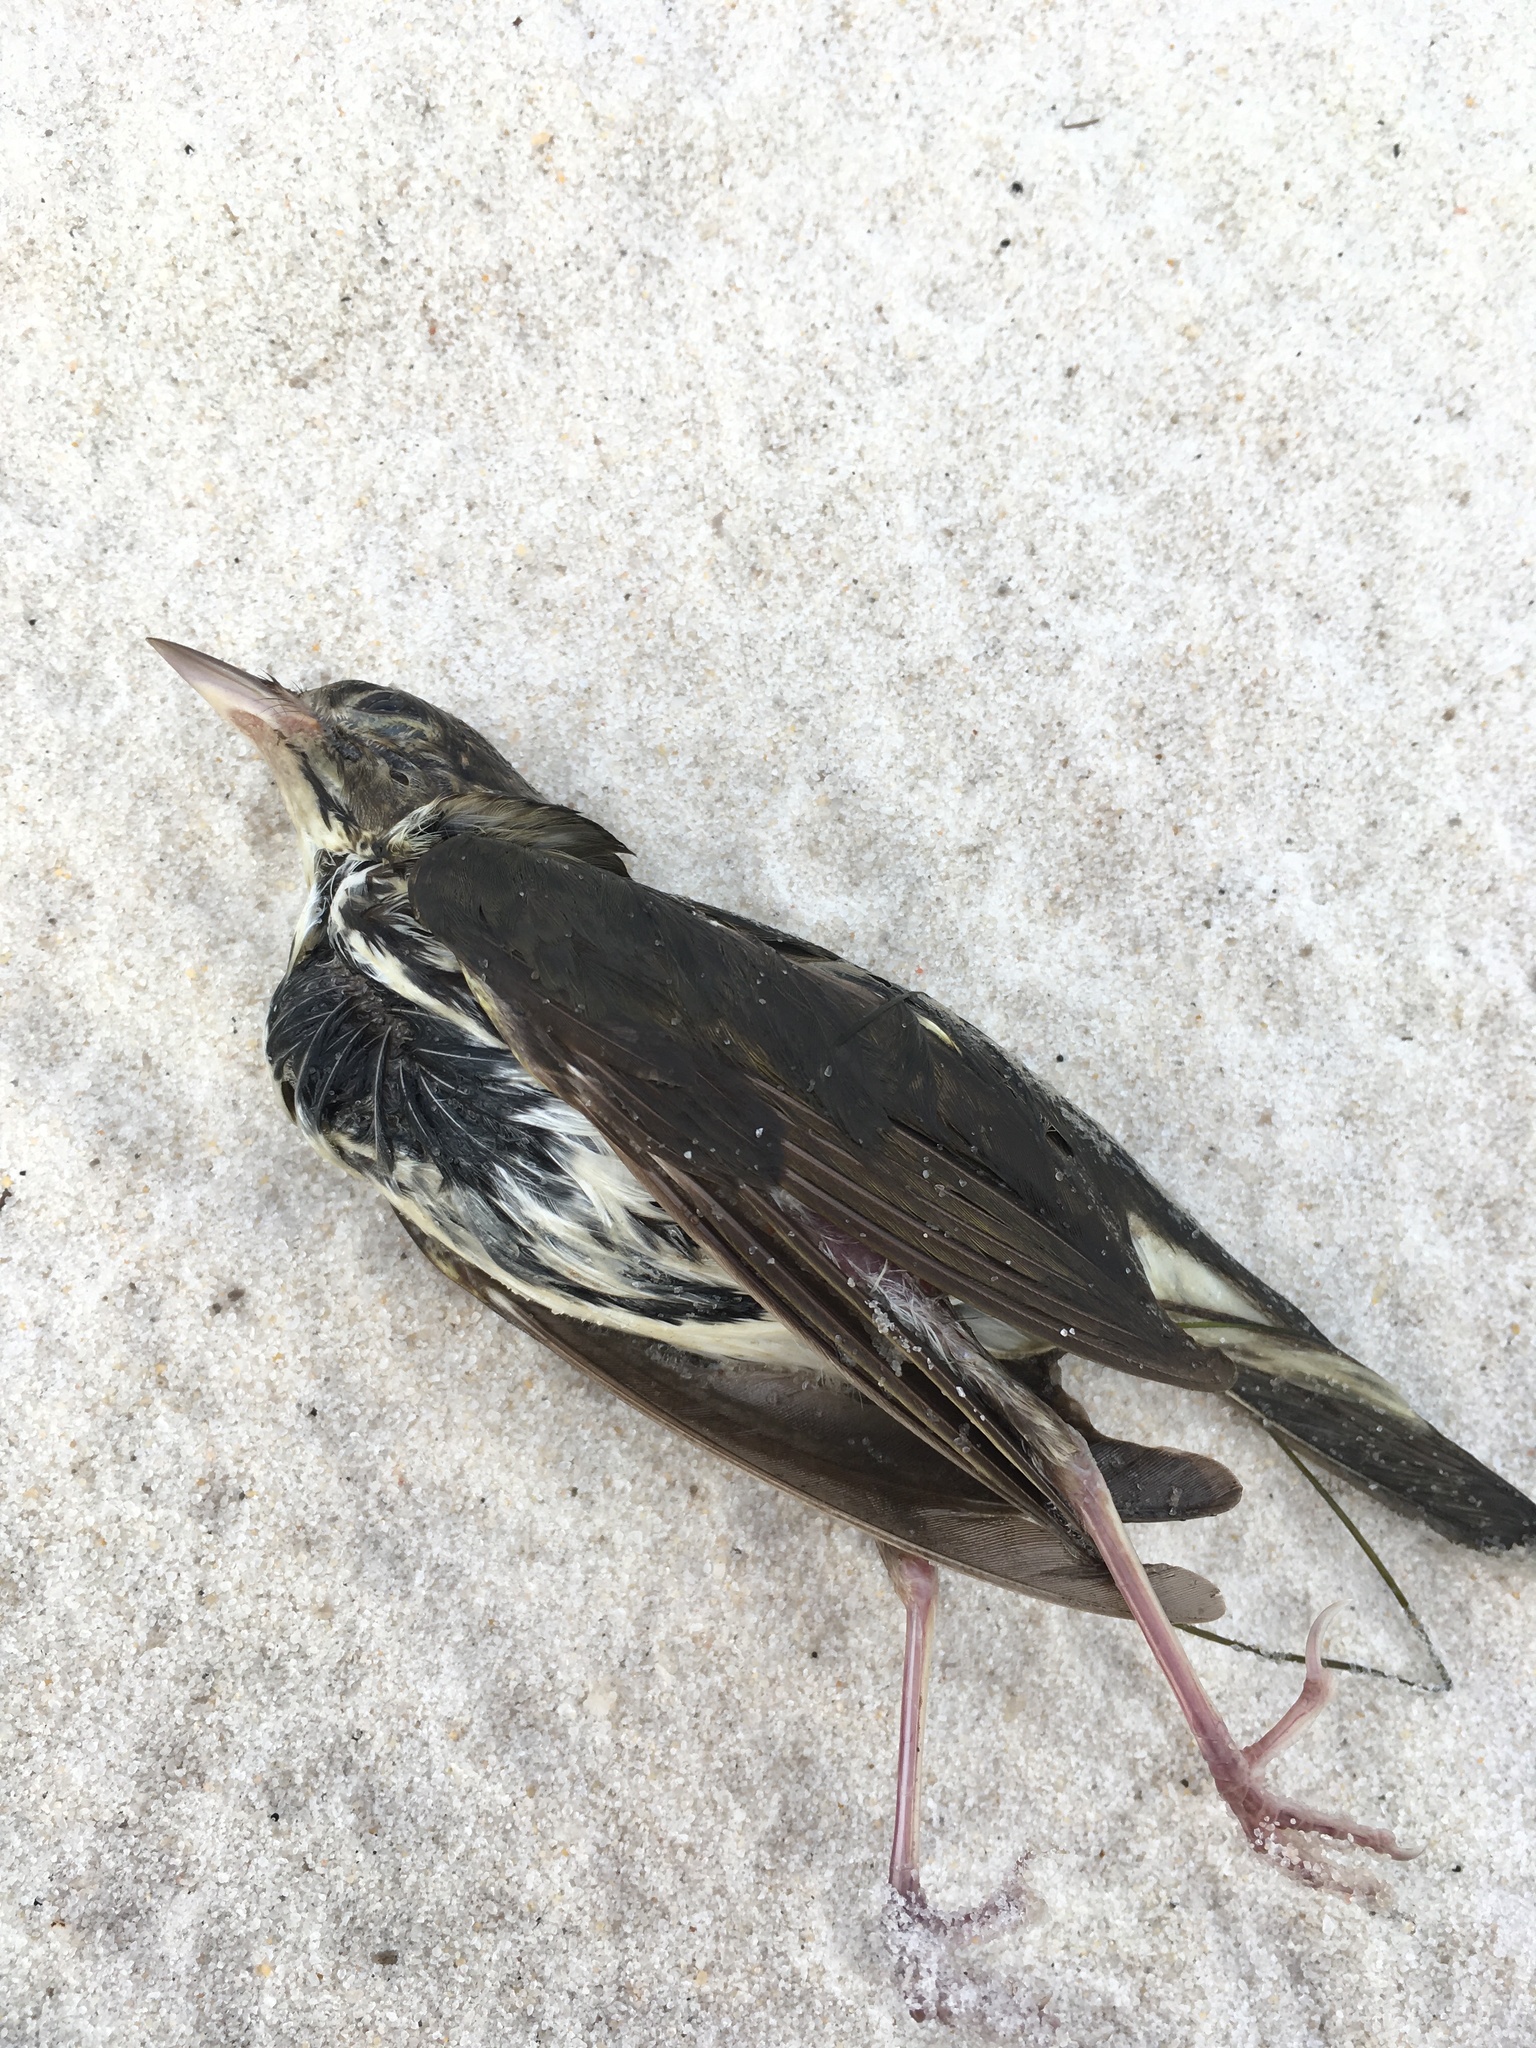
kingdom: Animalia
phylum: Chordata
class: Aves
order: Passeriformes
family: Parulidae
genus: Seiurus
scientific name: Seiurus aurocapilla
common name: Ovenbird
